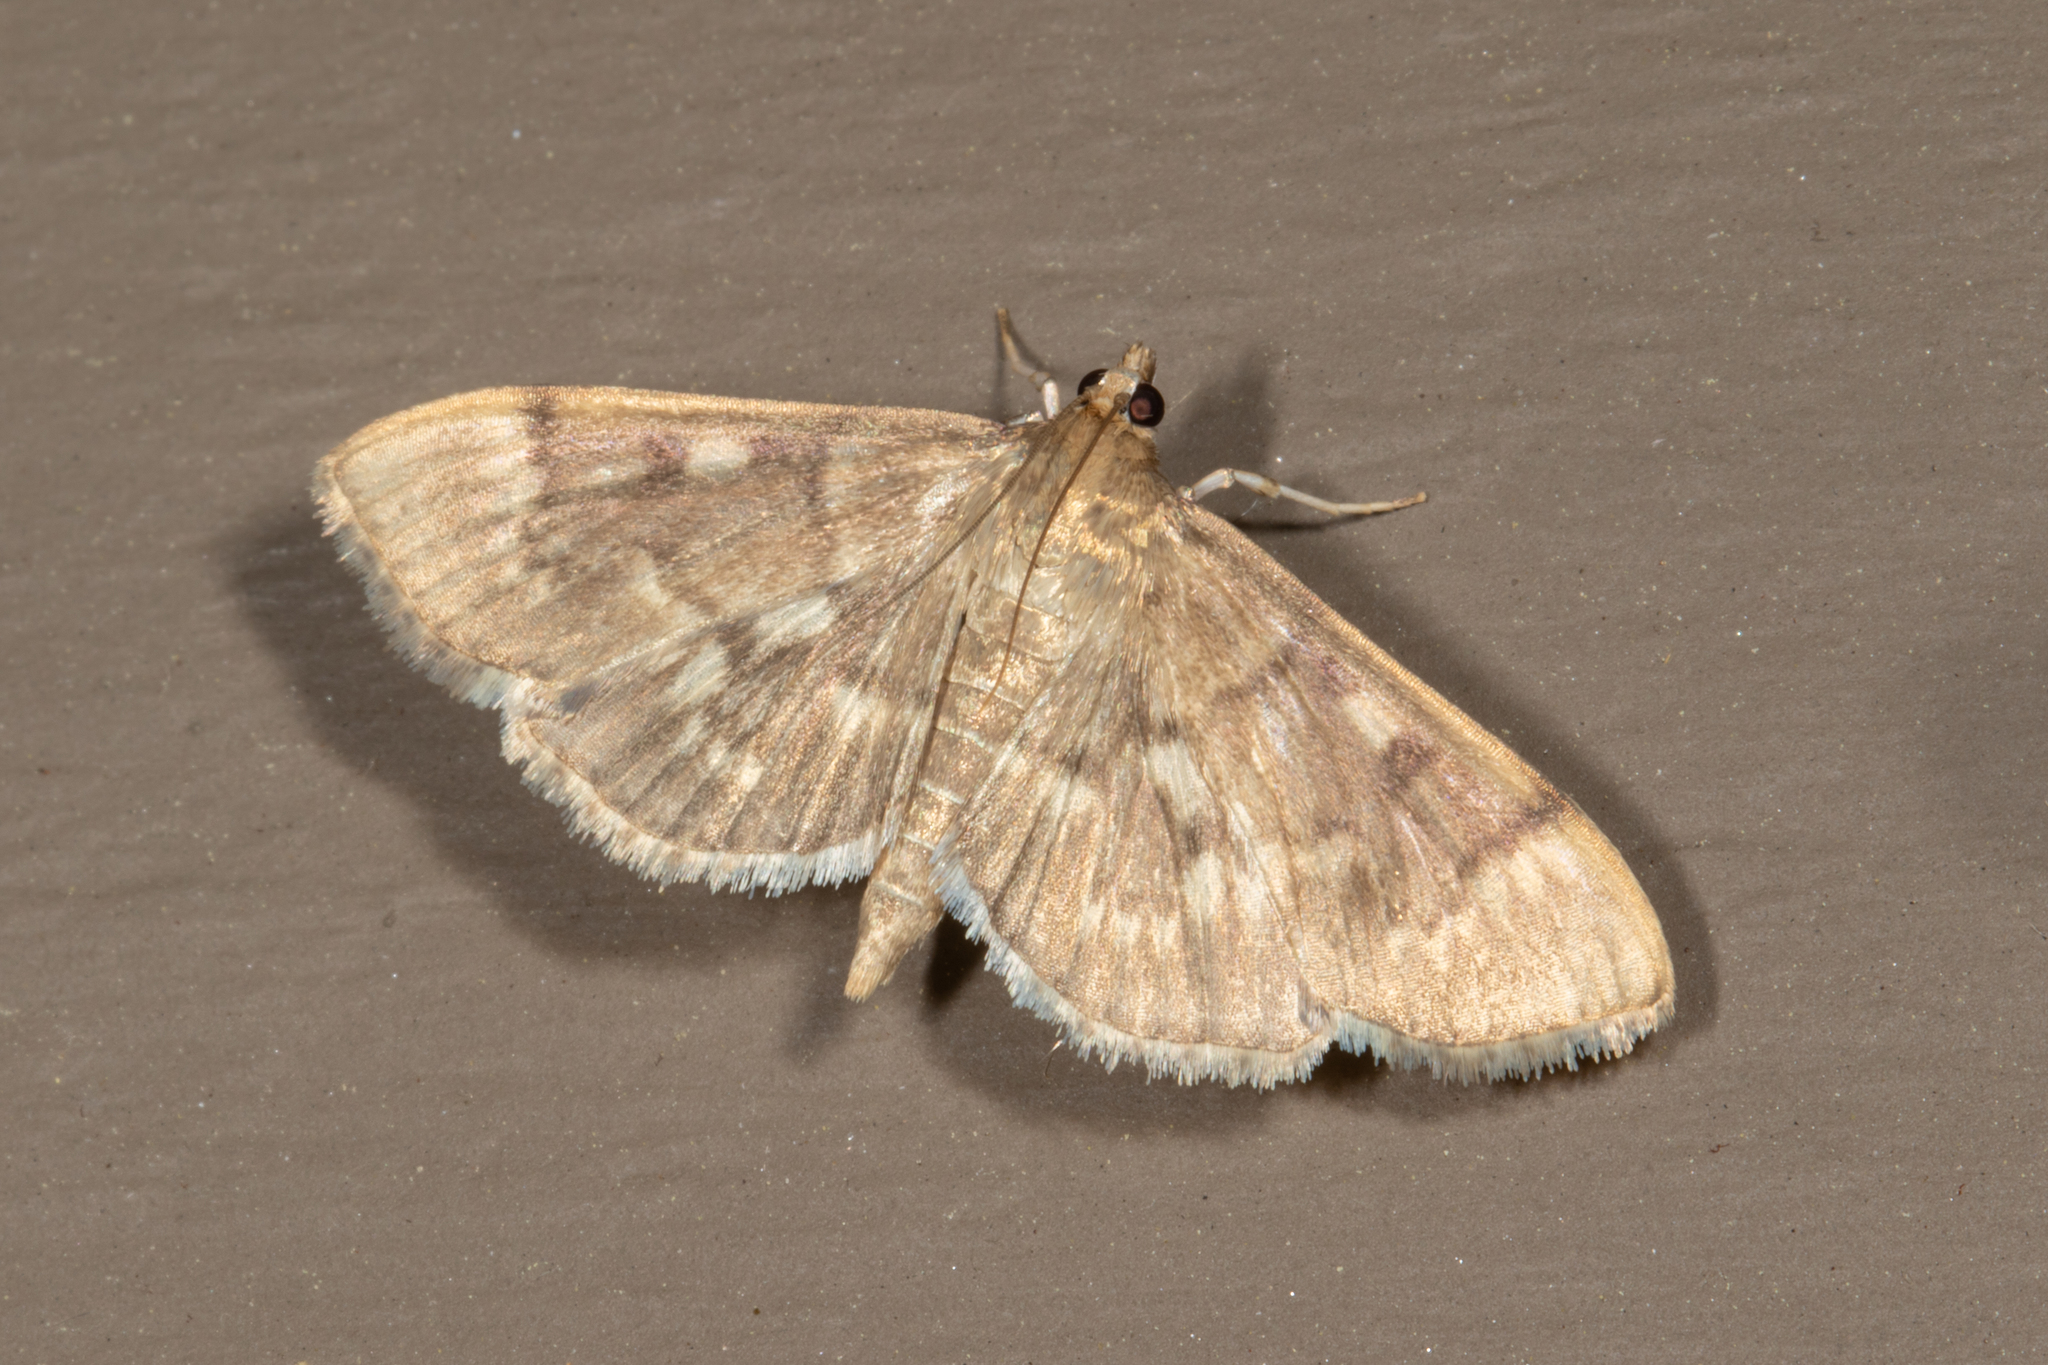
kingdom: Animalia
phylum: Arthropoda
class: Insecta
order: Lepidoptera
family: Crambidae
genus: Herpetogramma
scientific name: Herpetogramma aeglealis
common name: Serpentine webworm moth
